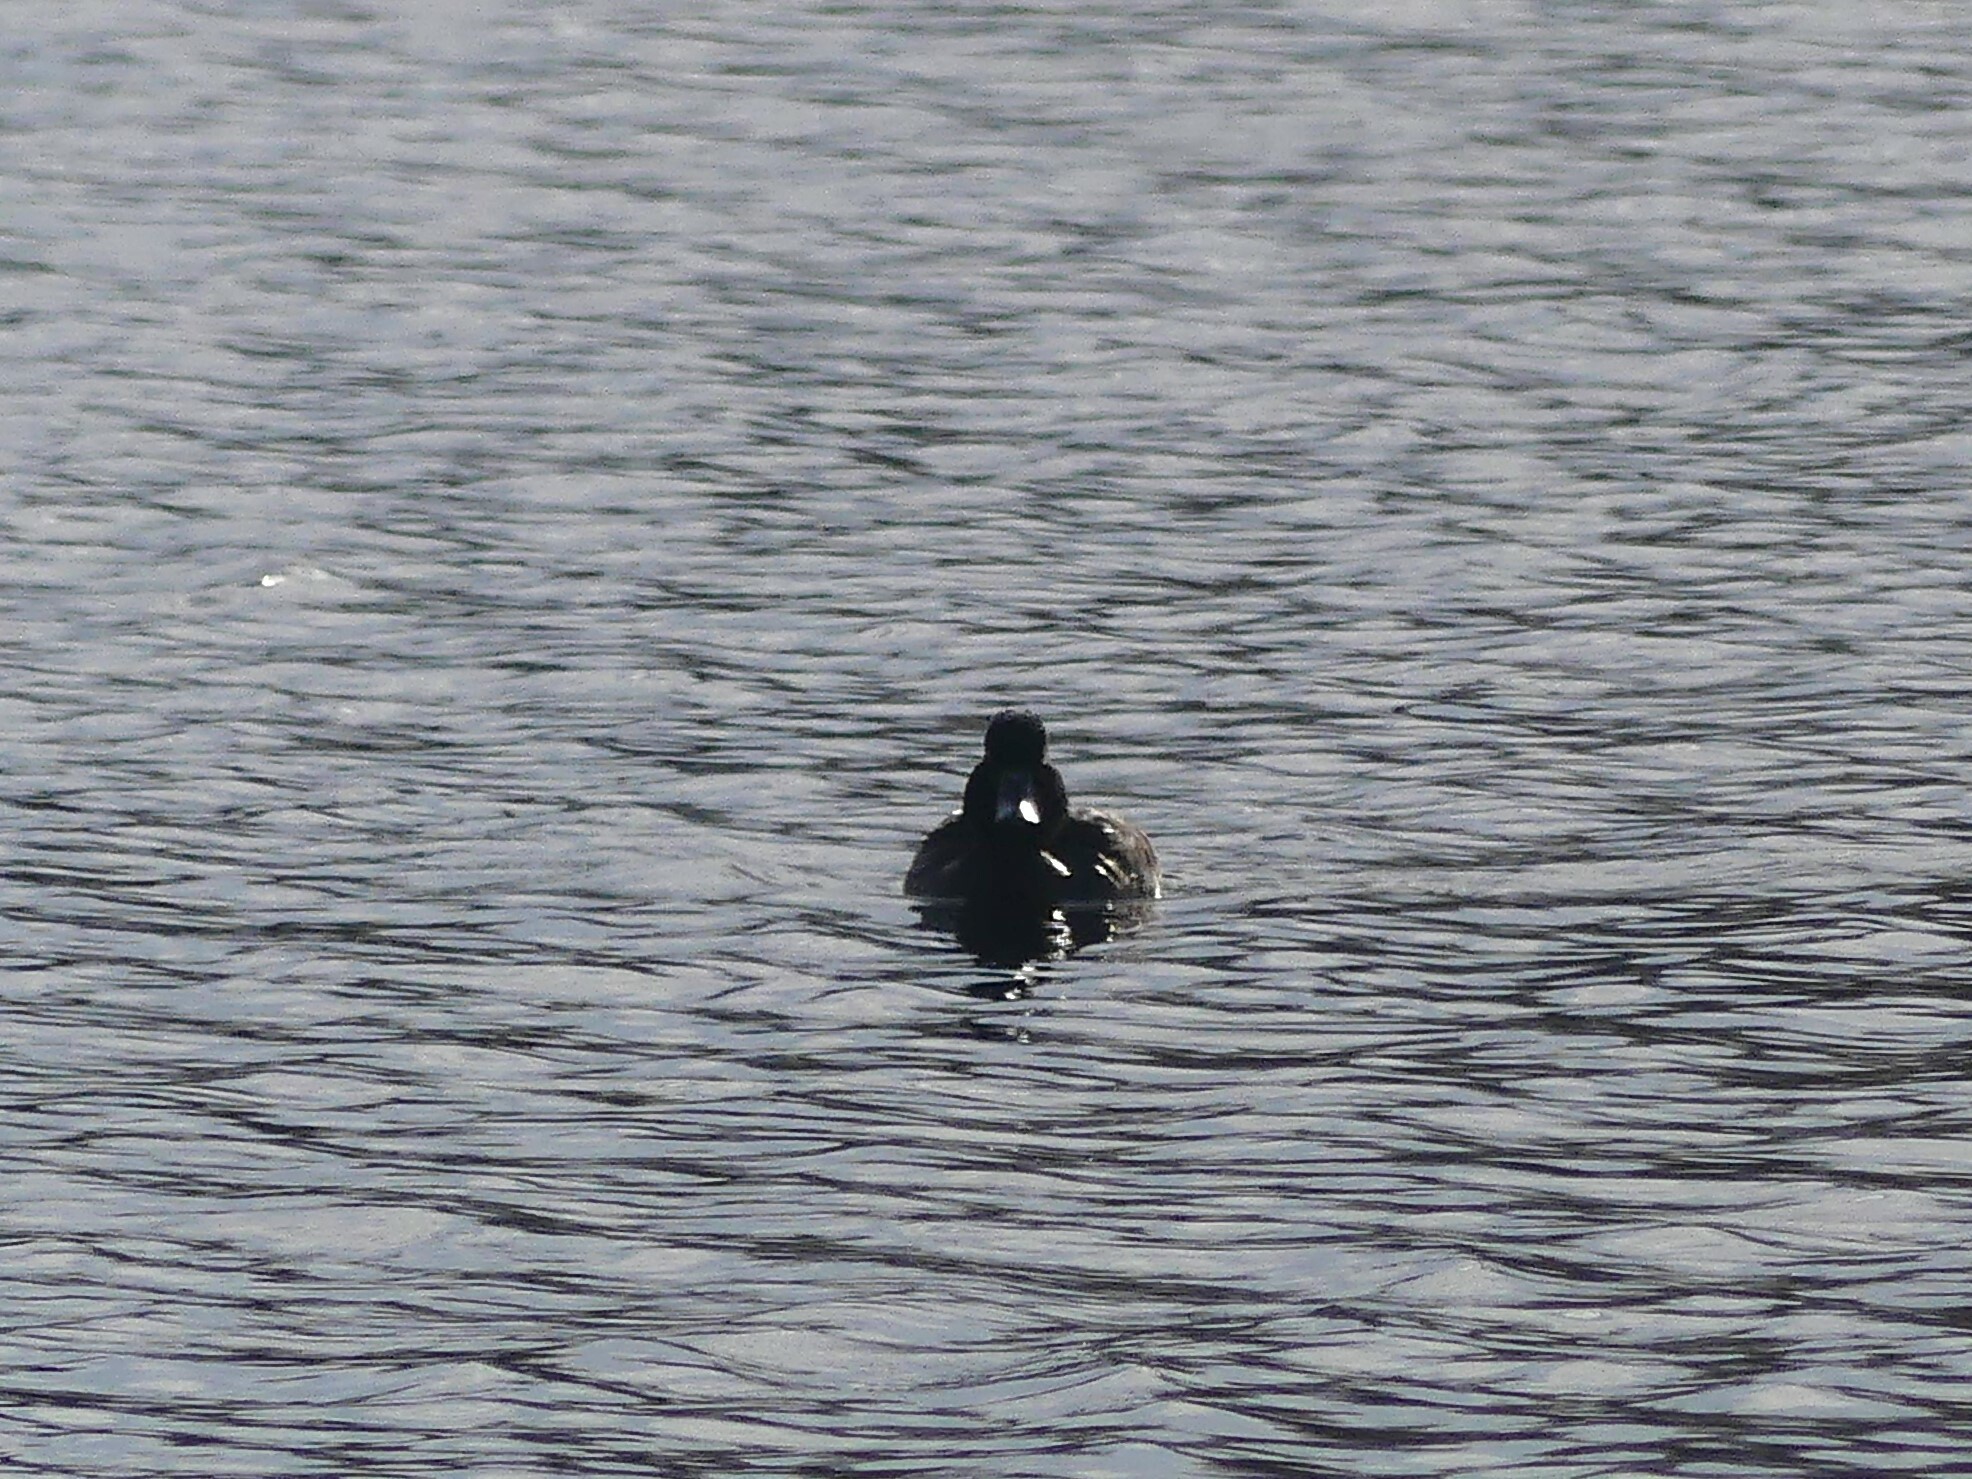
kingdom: Animalia
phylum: Chordata
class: Aves
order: Anseriformes
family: Anatidae
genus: Aythya
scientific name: Aythya collaris
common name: Ring-necked duck
